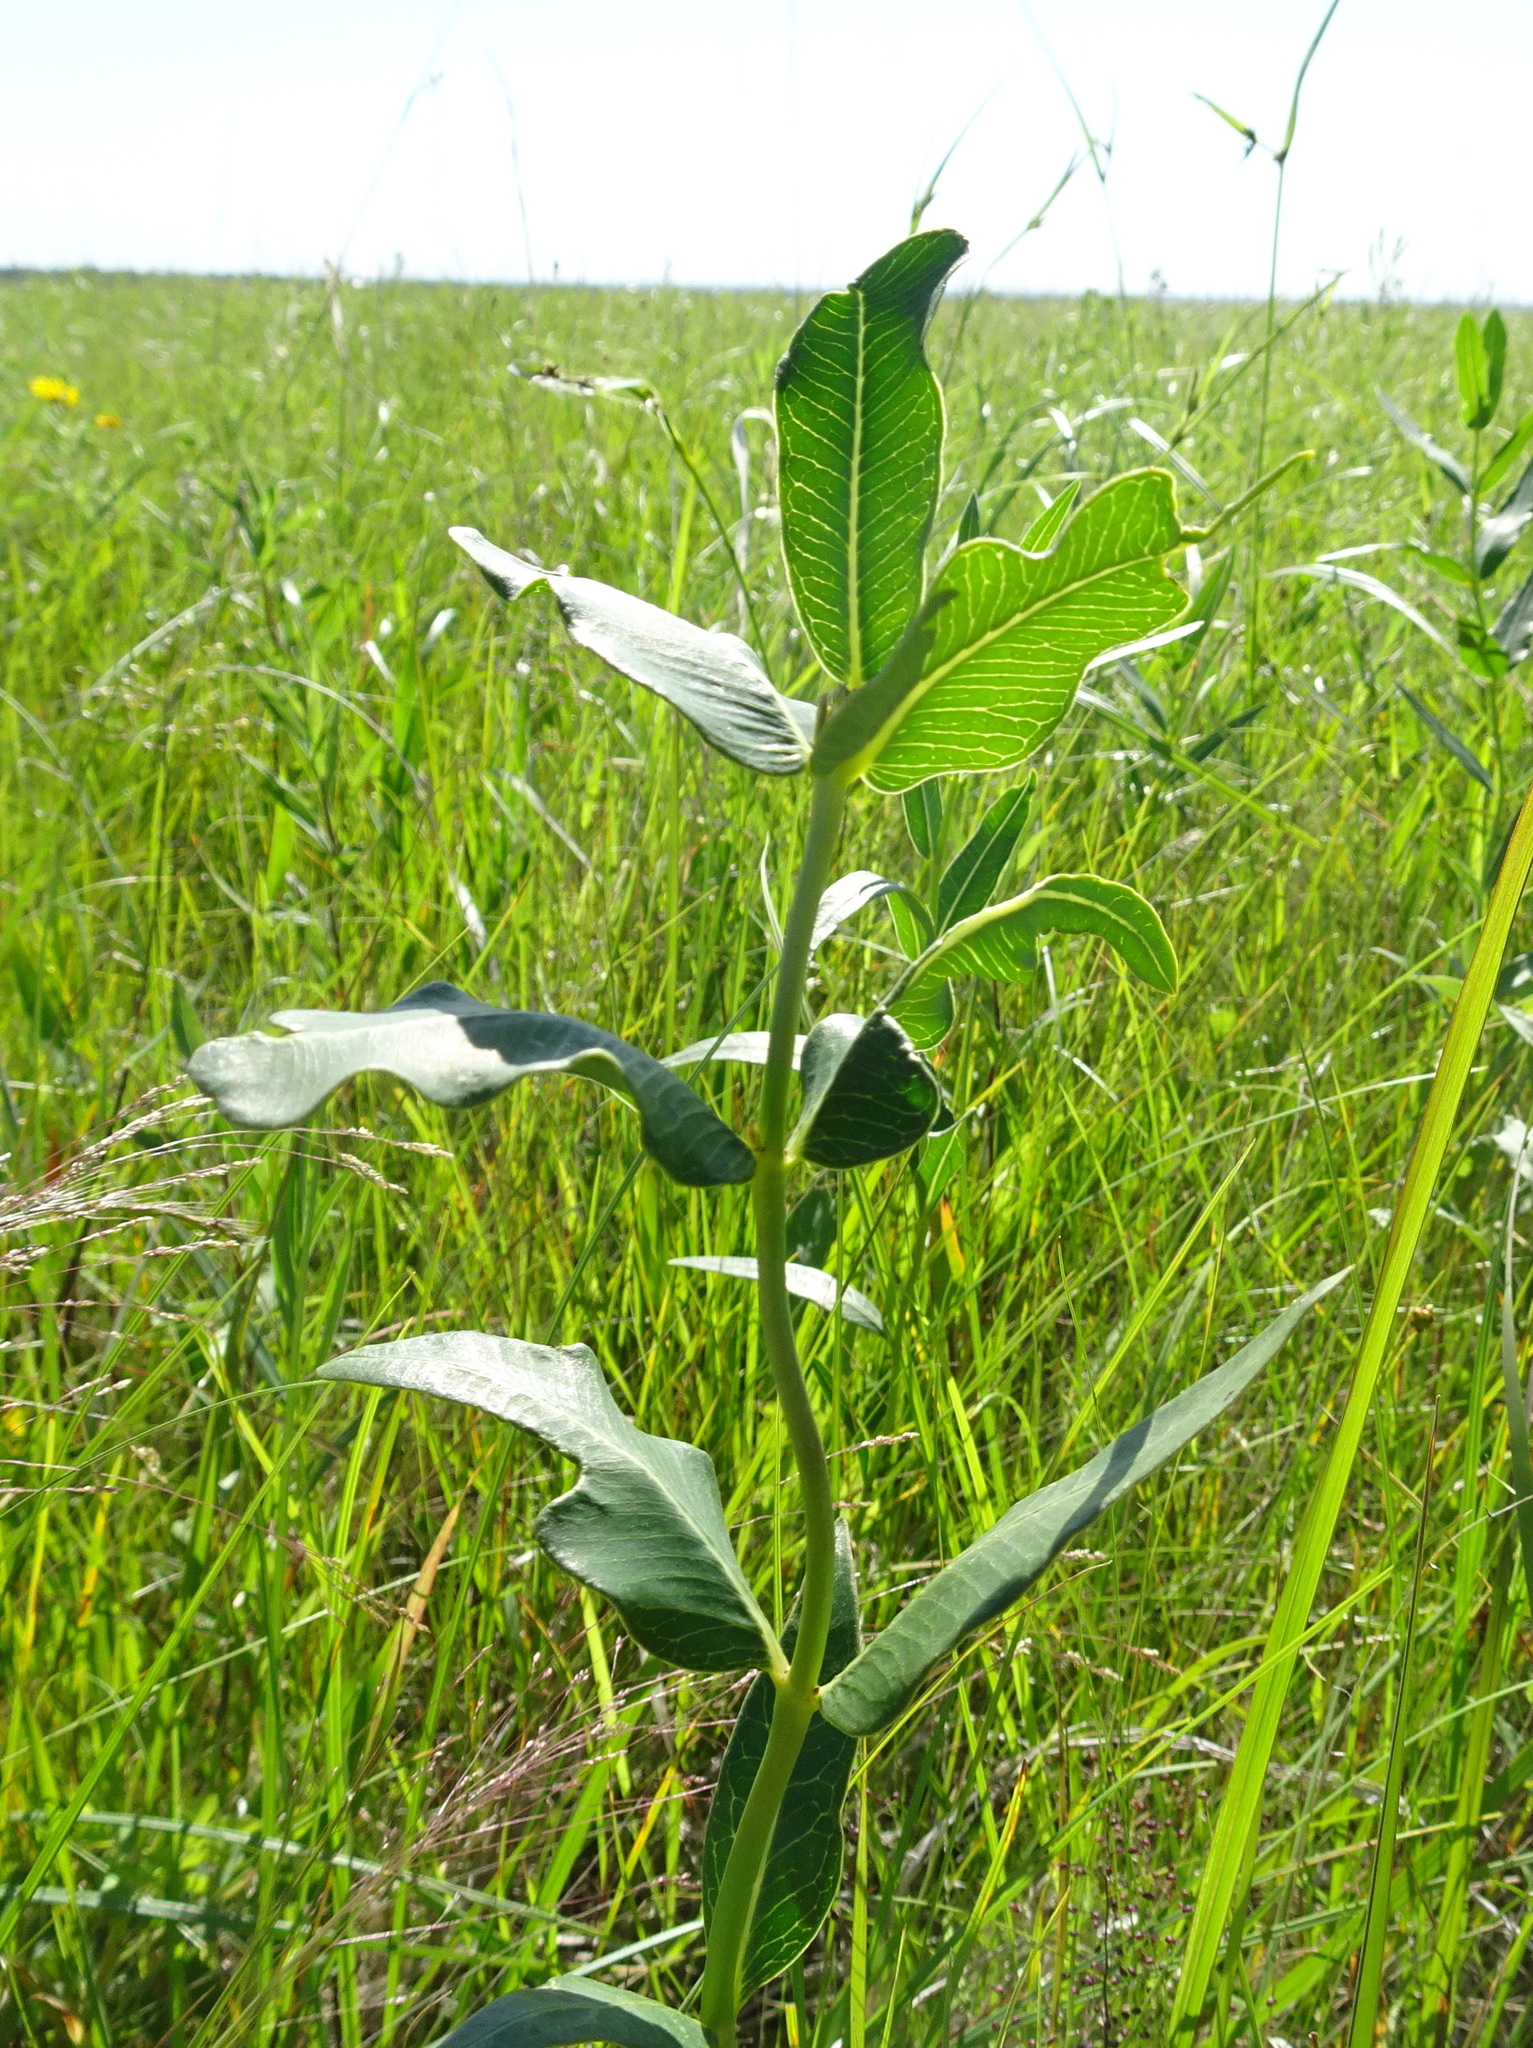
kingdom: Plantae
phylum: Tracheophyta
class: Magnoliopsida
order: Gentianales
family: Apocynaceae
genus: Asclepias
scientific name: Asclepias viridiflora
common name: Green comet milkweed
